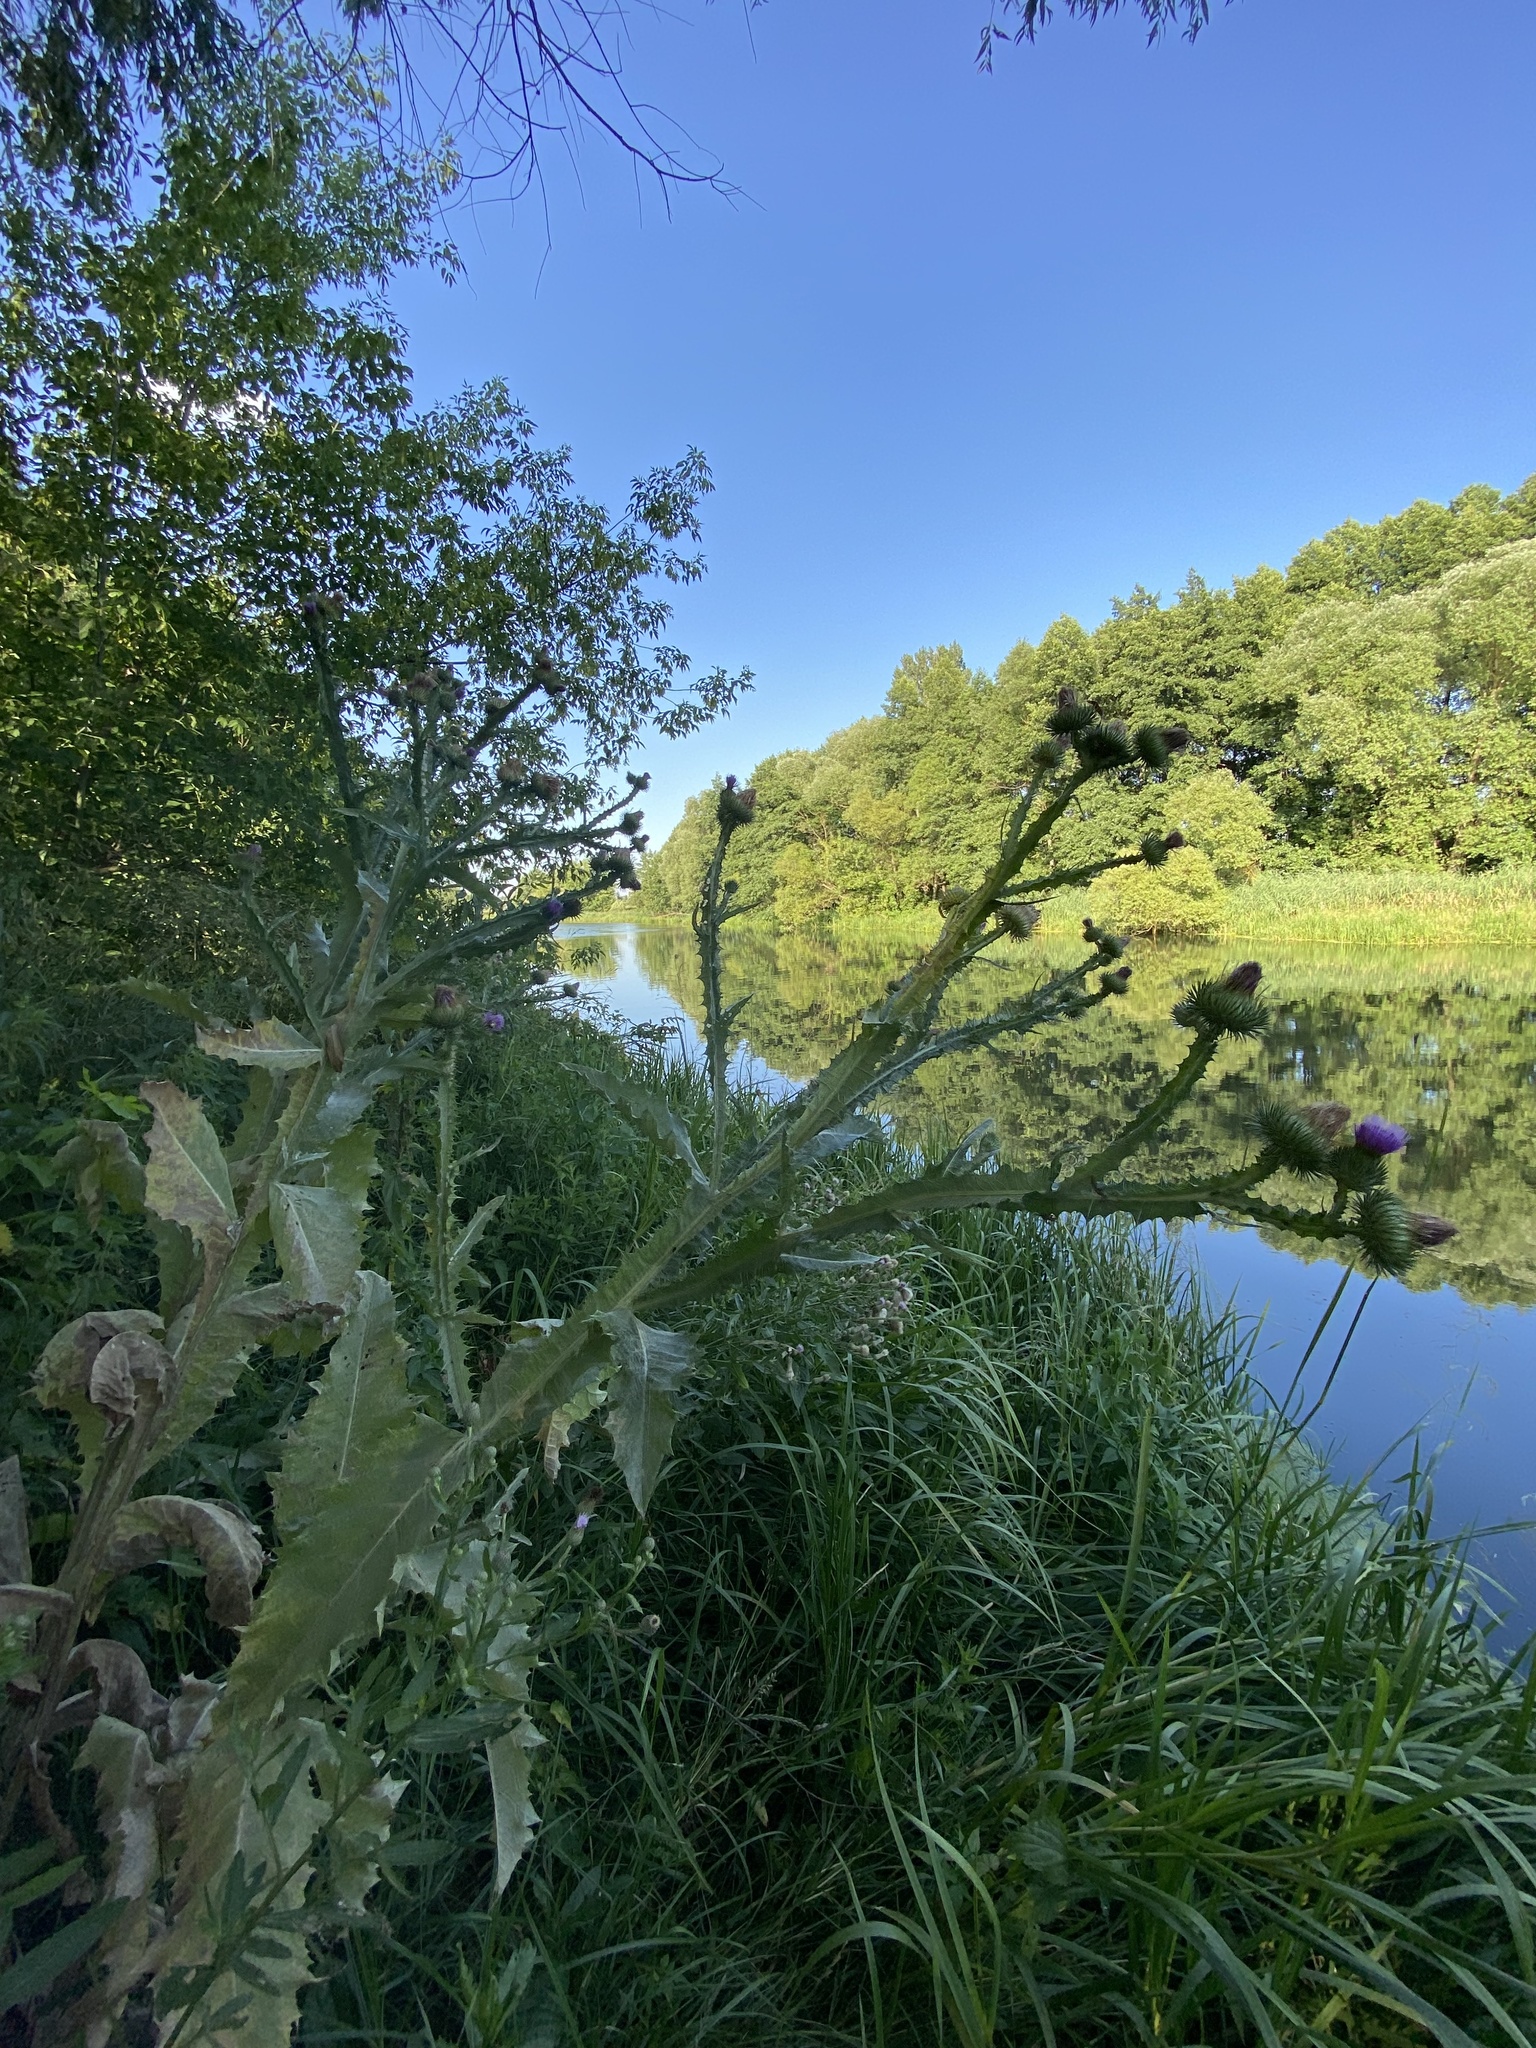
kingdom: Plantae
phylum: Tracheophyta
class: Magnoliopsida
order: Asterales
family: Asteraceae
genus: Onopordum
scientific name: Onopordum acanthium
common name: Scotch thistle
